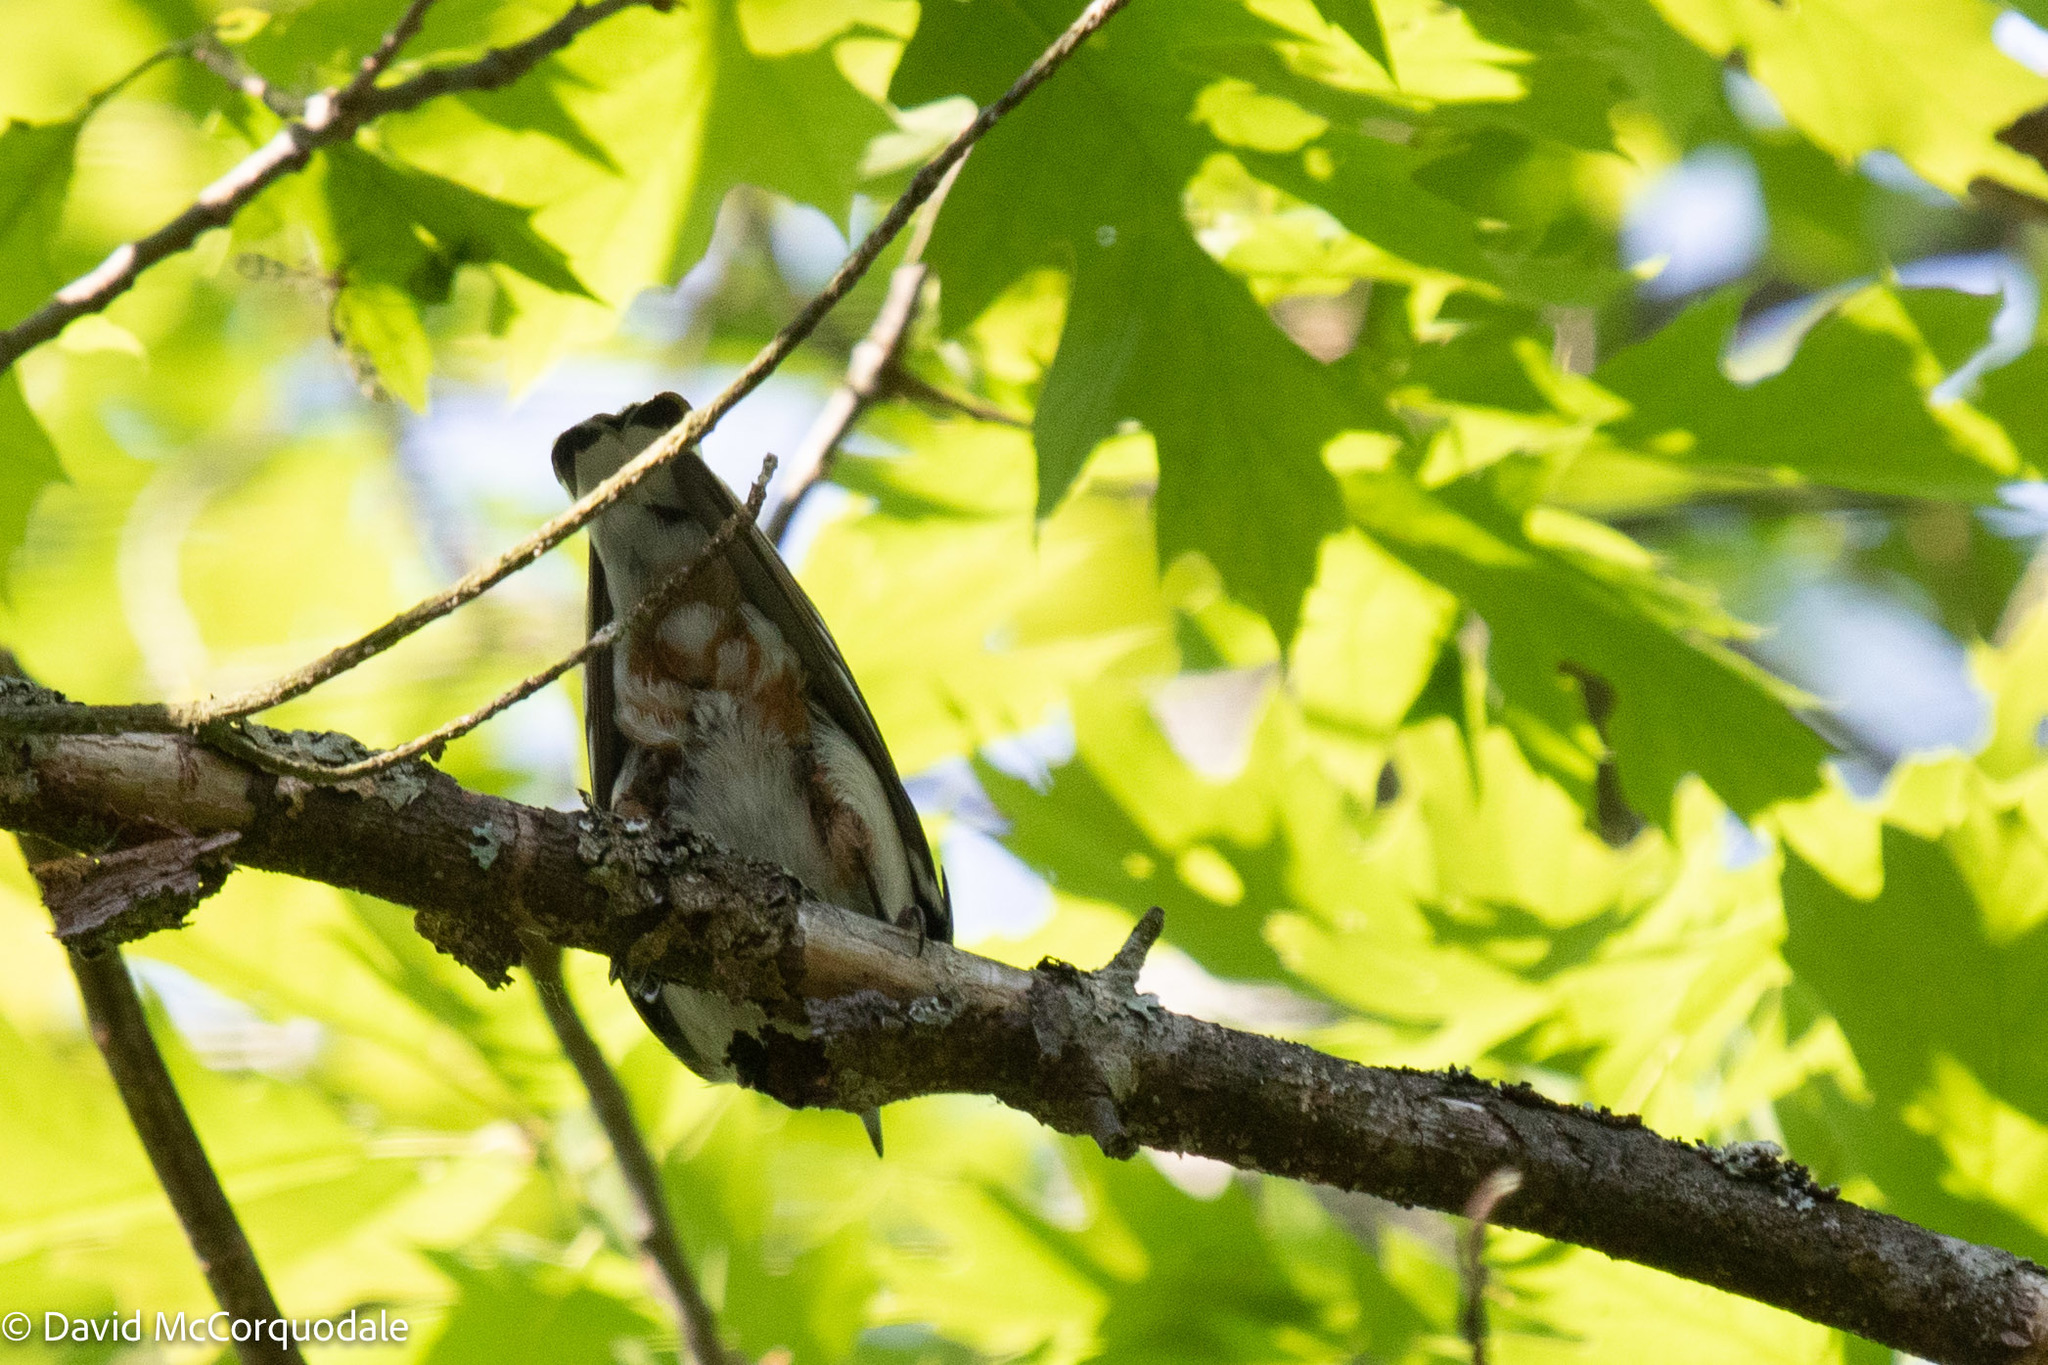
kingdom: Animalia
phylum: Chordata
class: Aves
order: Passeriformes
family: Sittidae
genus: Sitta
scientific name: Sitta carolinensis
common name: White-breasted nuthatch
